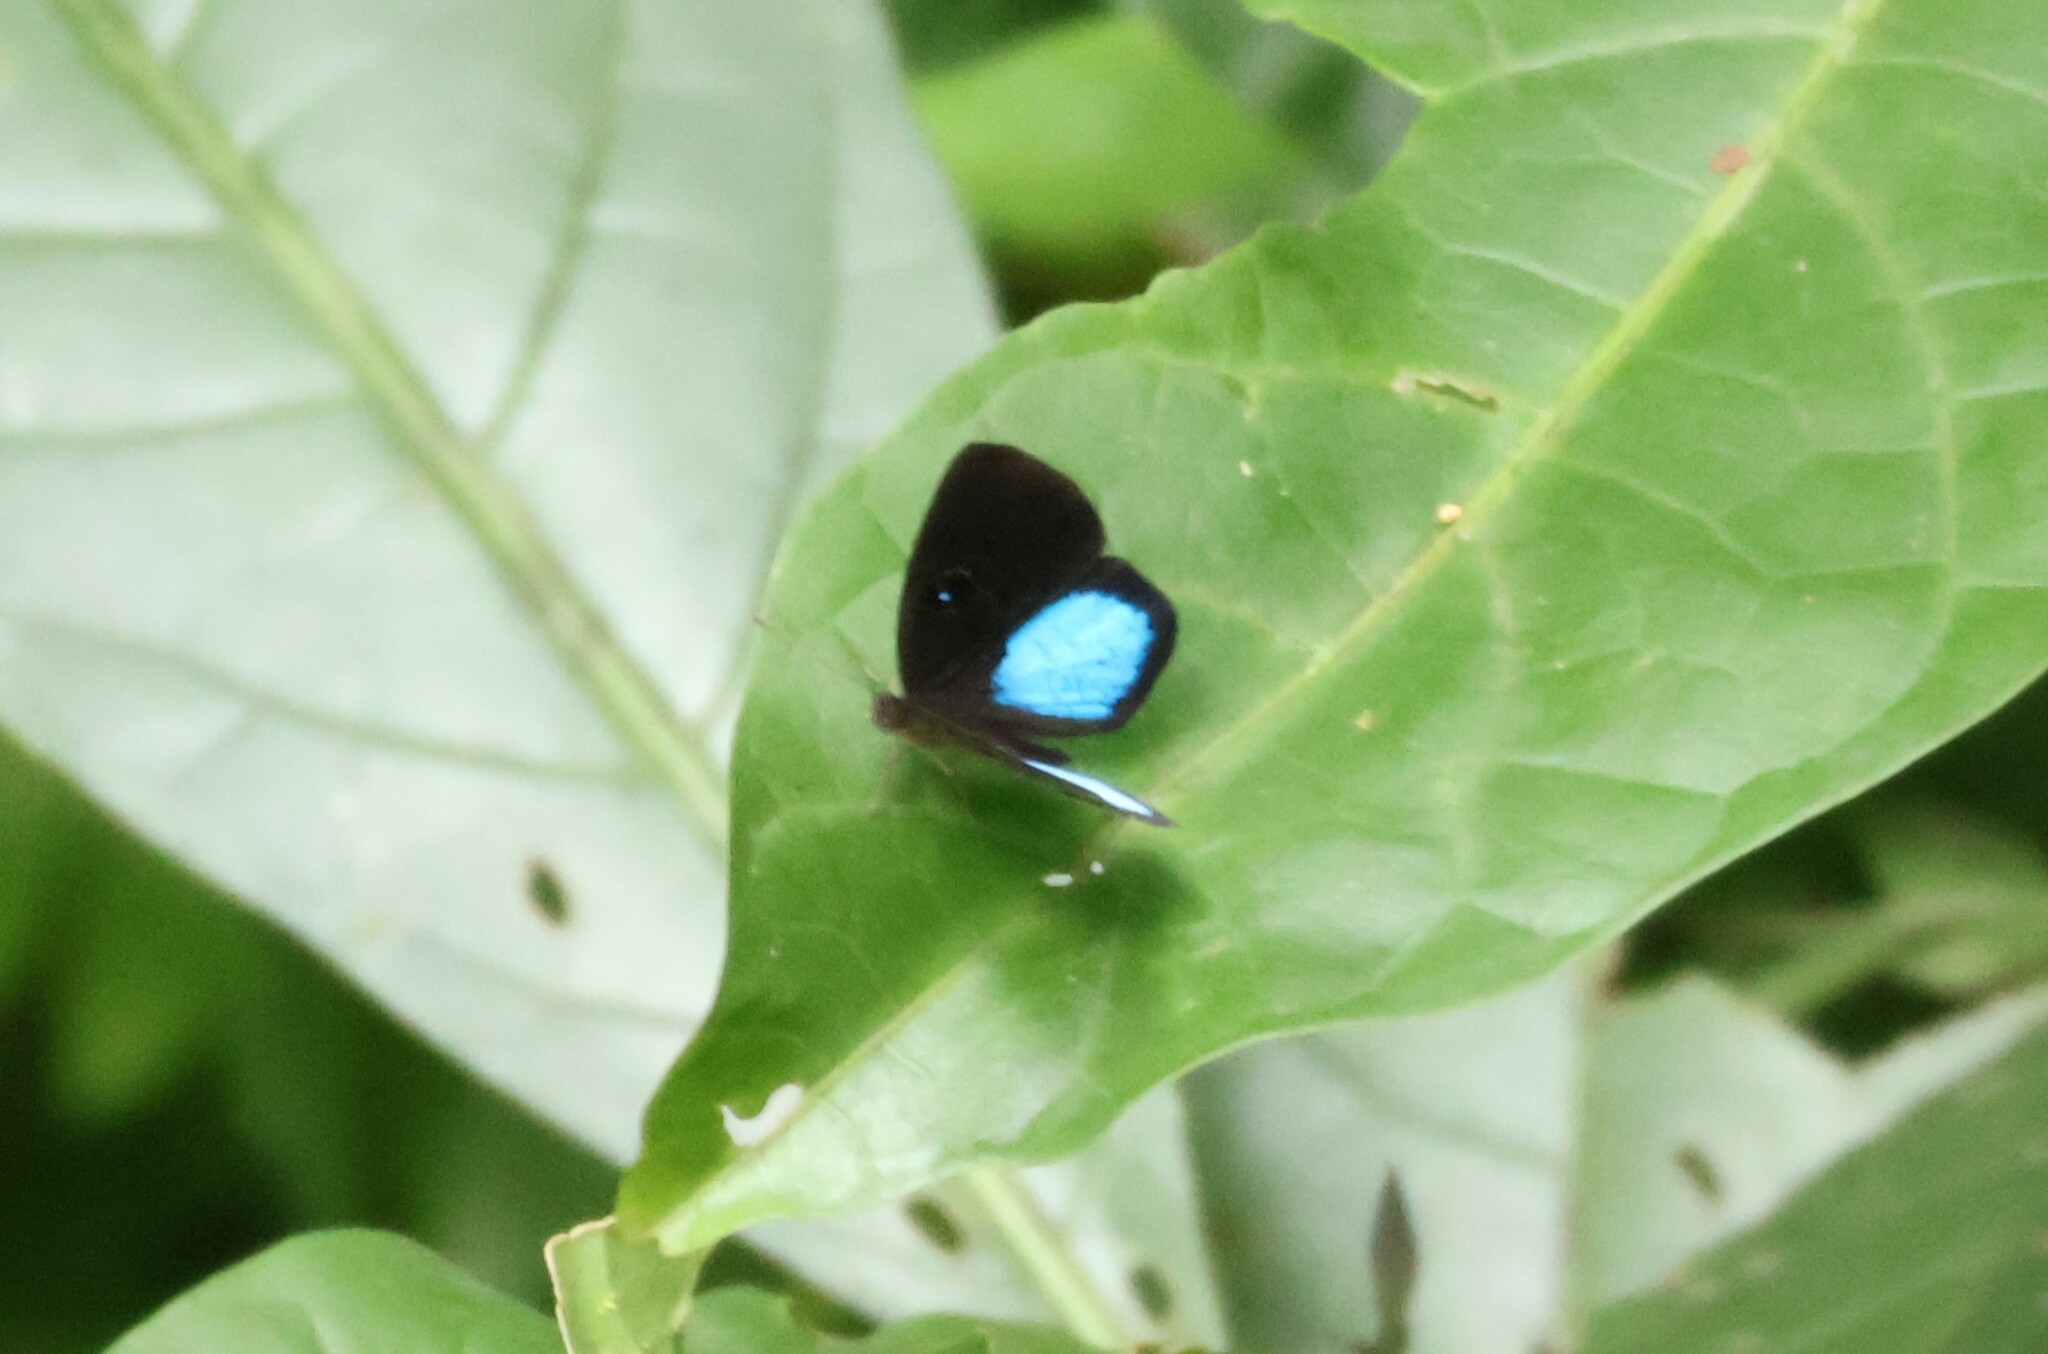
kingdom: Animalia
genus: Mesosemia
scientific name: Mesosemia carissima
